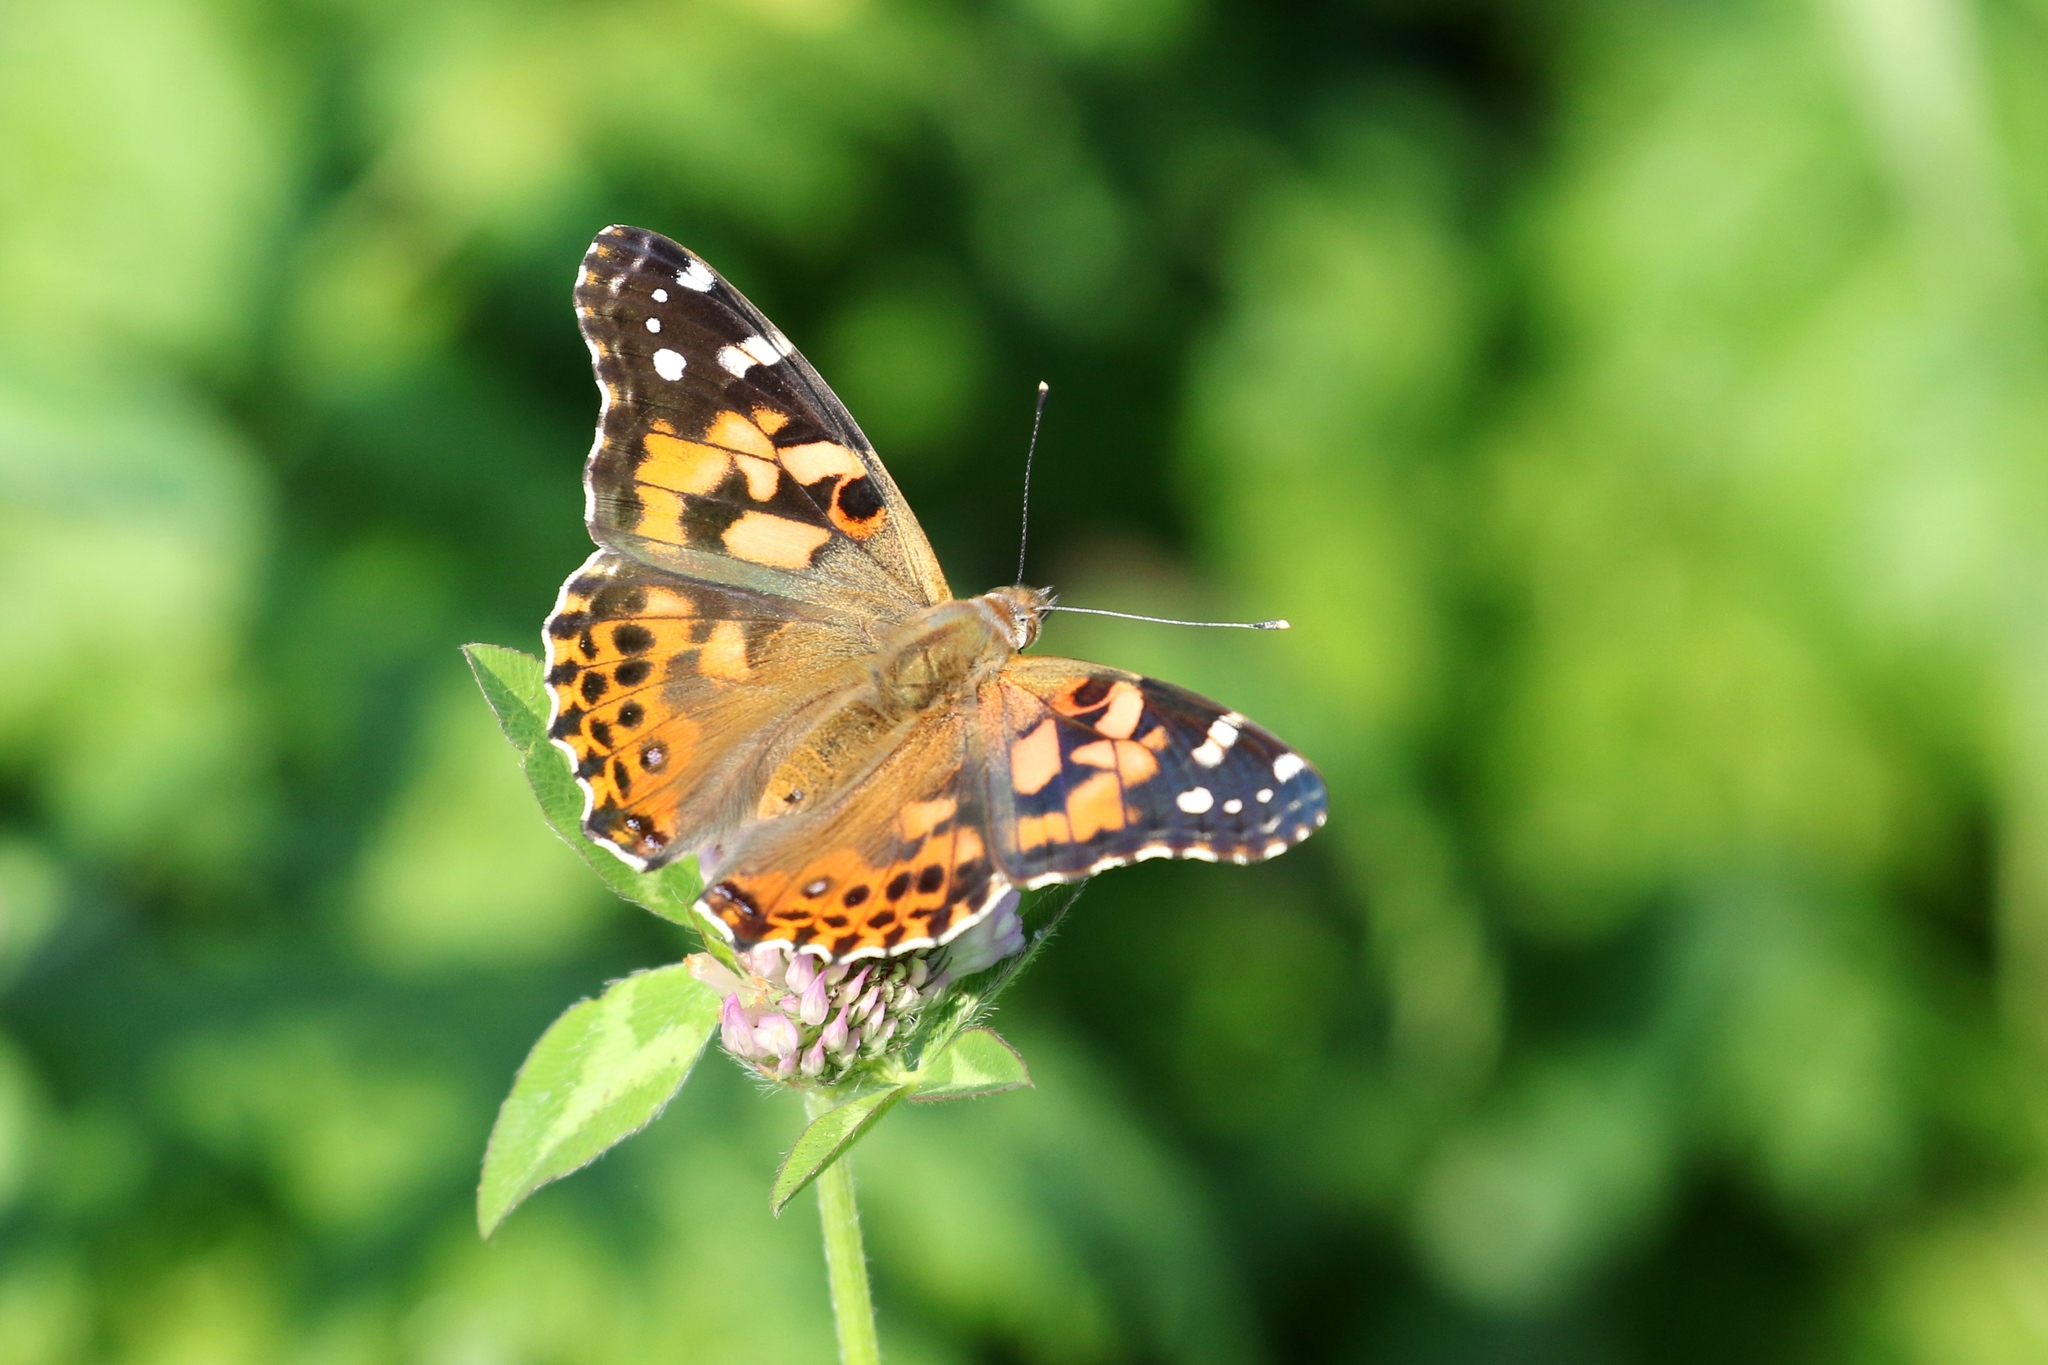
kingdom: Animalia
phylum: Arthropoda
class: Insecta
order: Lepidoptera
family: Nymphalidae
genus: Vanessa
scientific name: Vanessa cardui
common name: Painted lady
